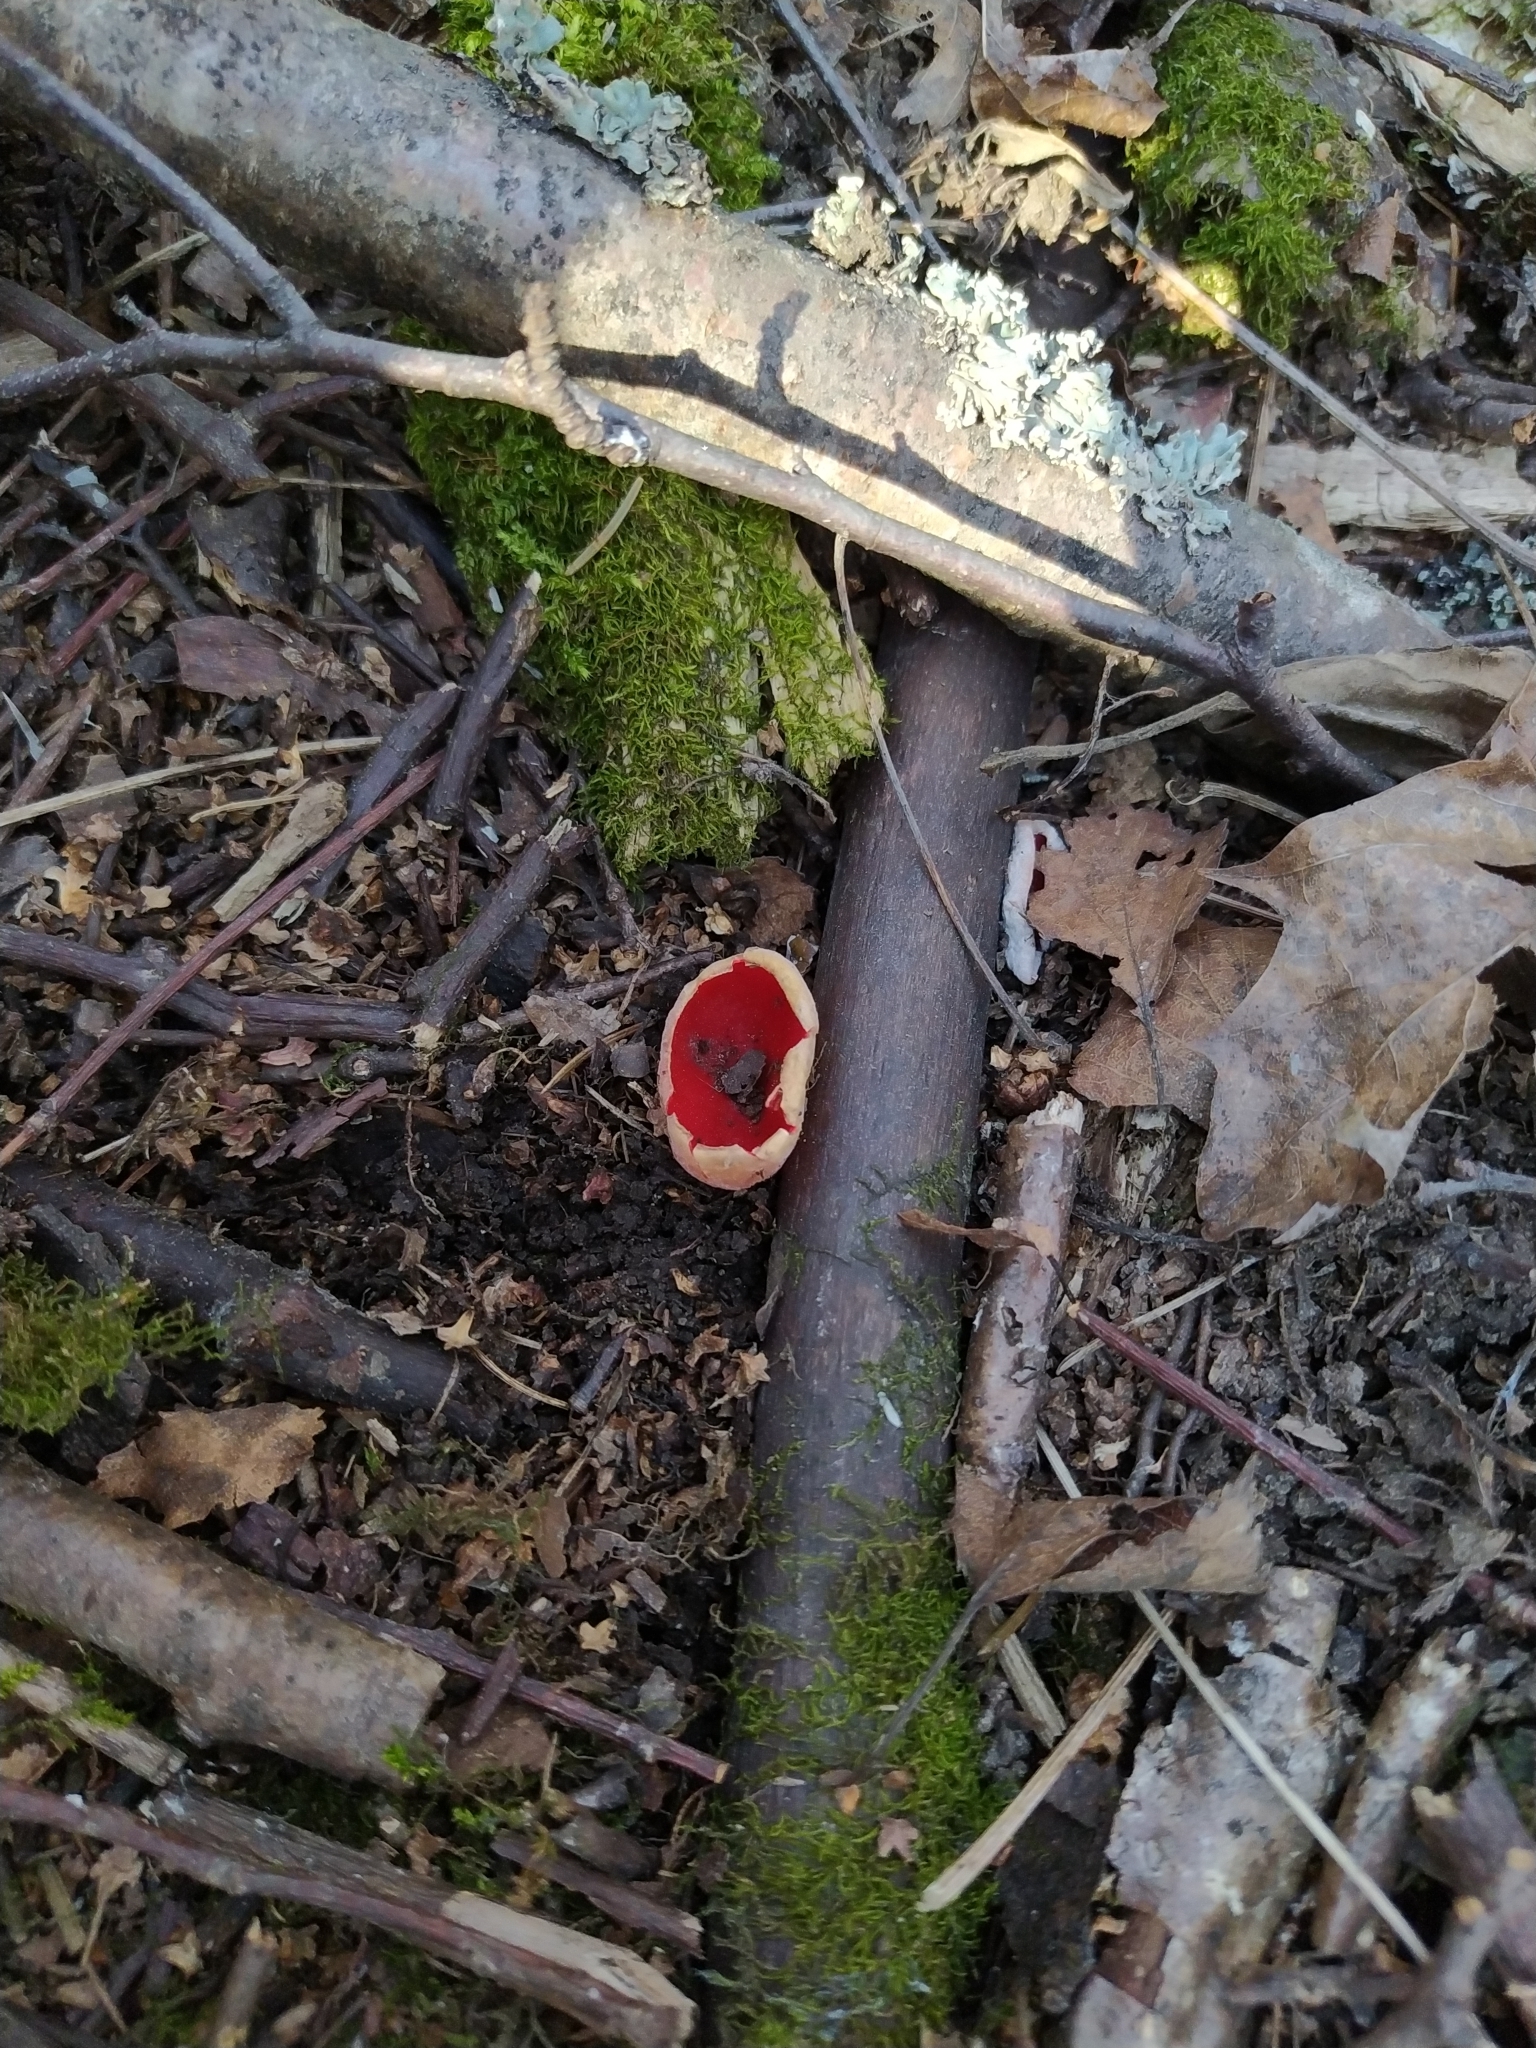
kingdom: Fungi
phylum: Ascomycota
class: Pezizomycetes
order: Pezizales
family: Sarcoscyphaceae
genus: Sarcoscypha
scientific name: Sarcoscypha austriaca
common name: Scarlet elfcup
